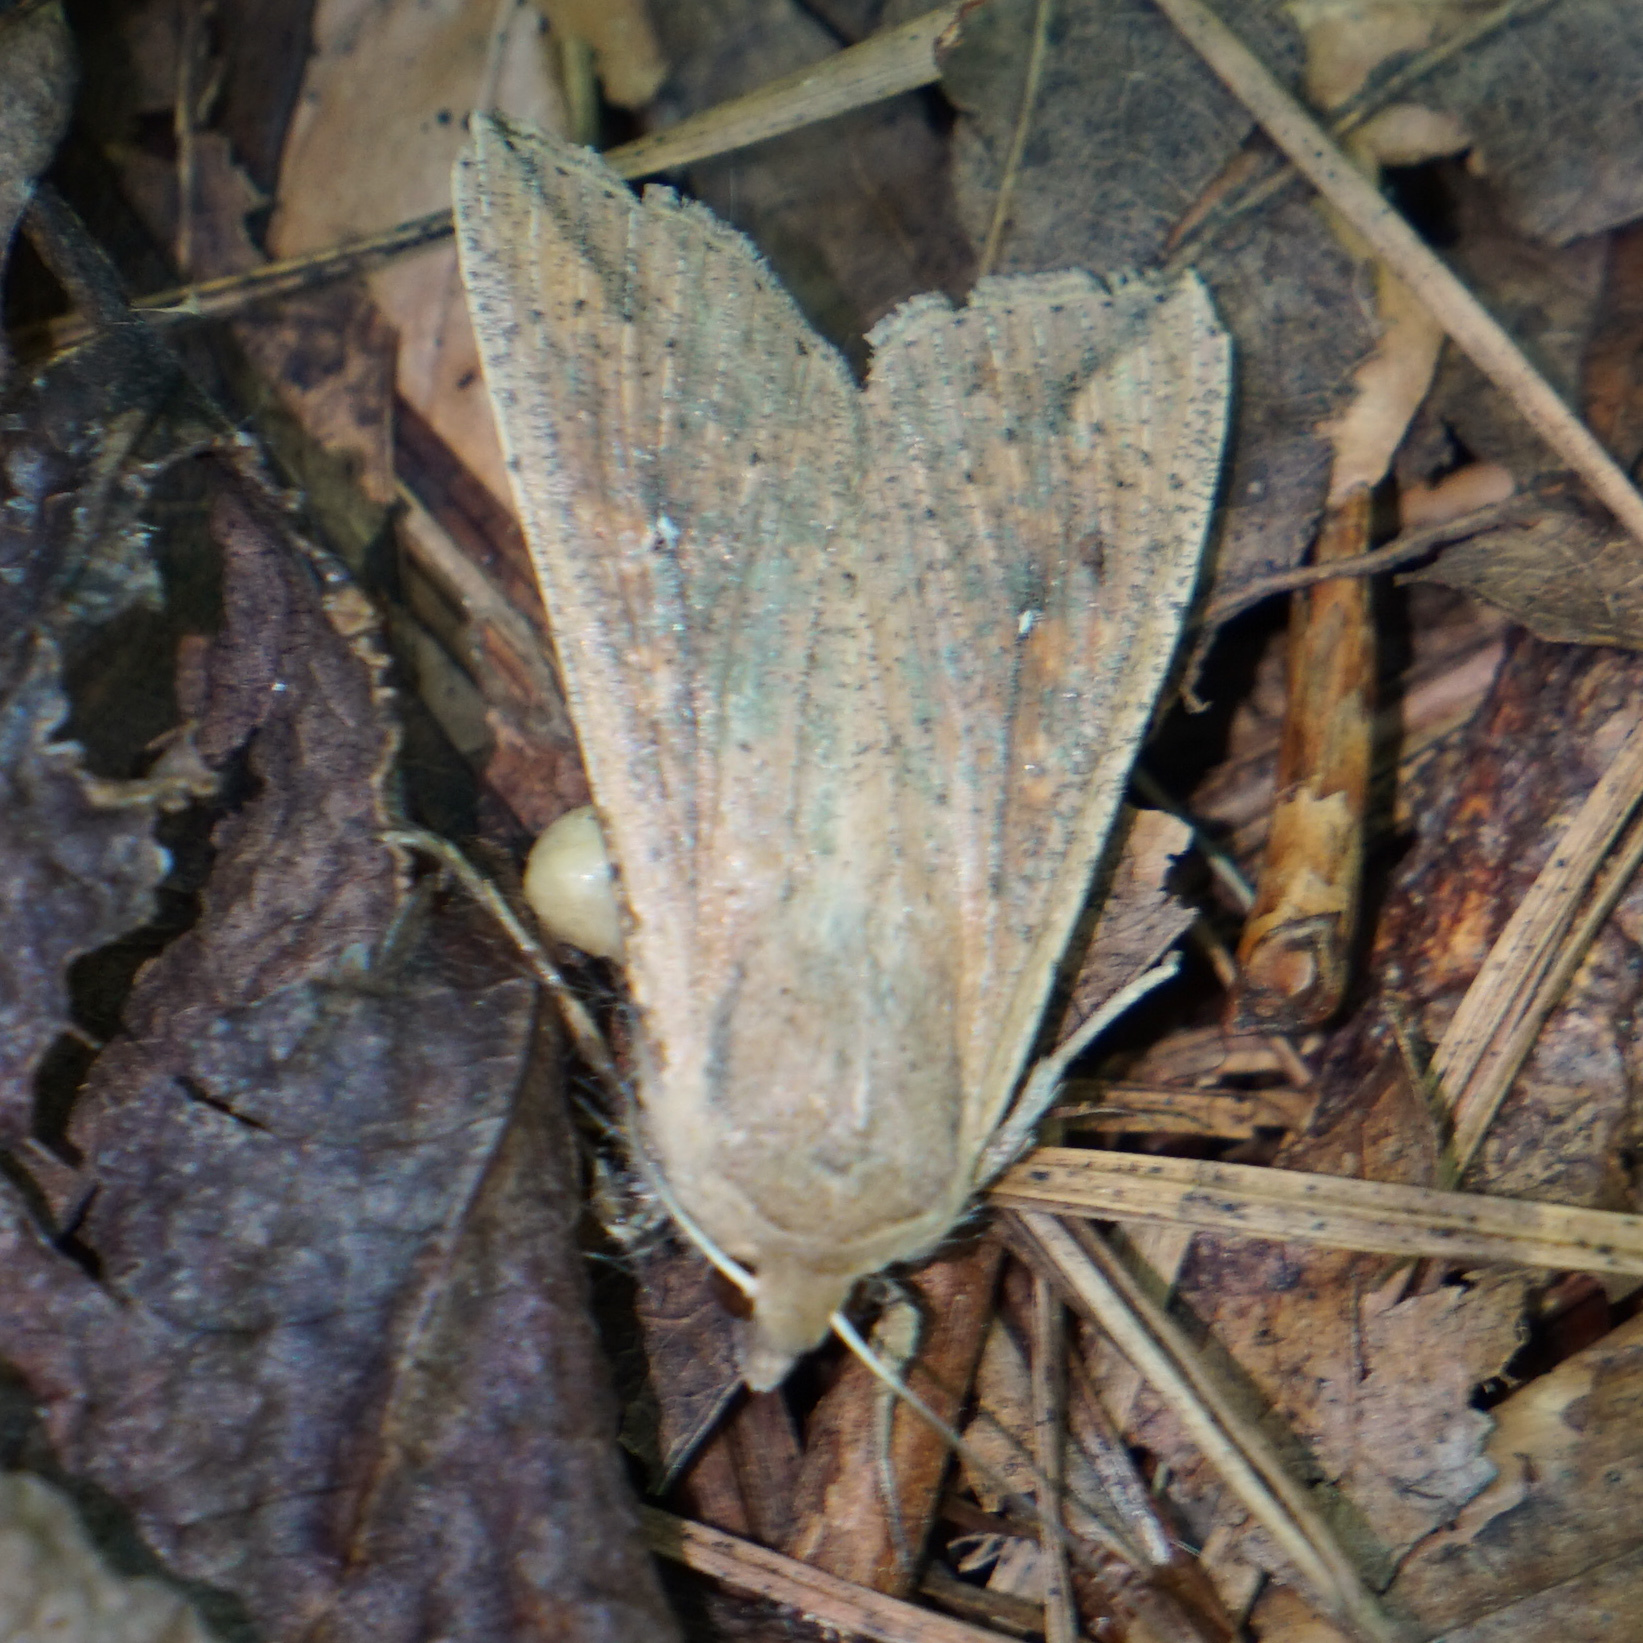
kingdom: Animalia
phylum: Arthropoda
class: Insecta
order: Lepidoptera
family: Noctuidae
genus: Mythimna
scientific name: Mythimna unipuncta
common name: White-speck
